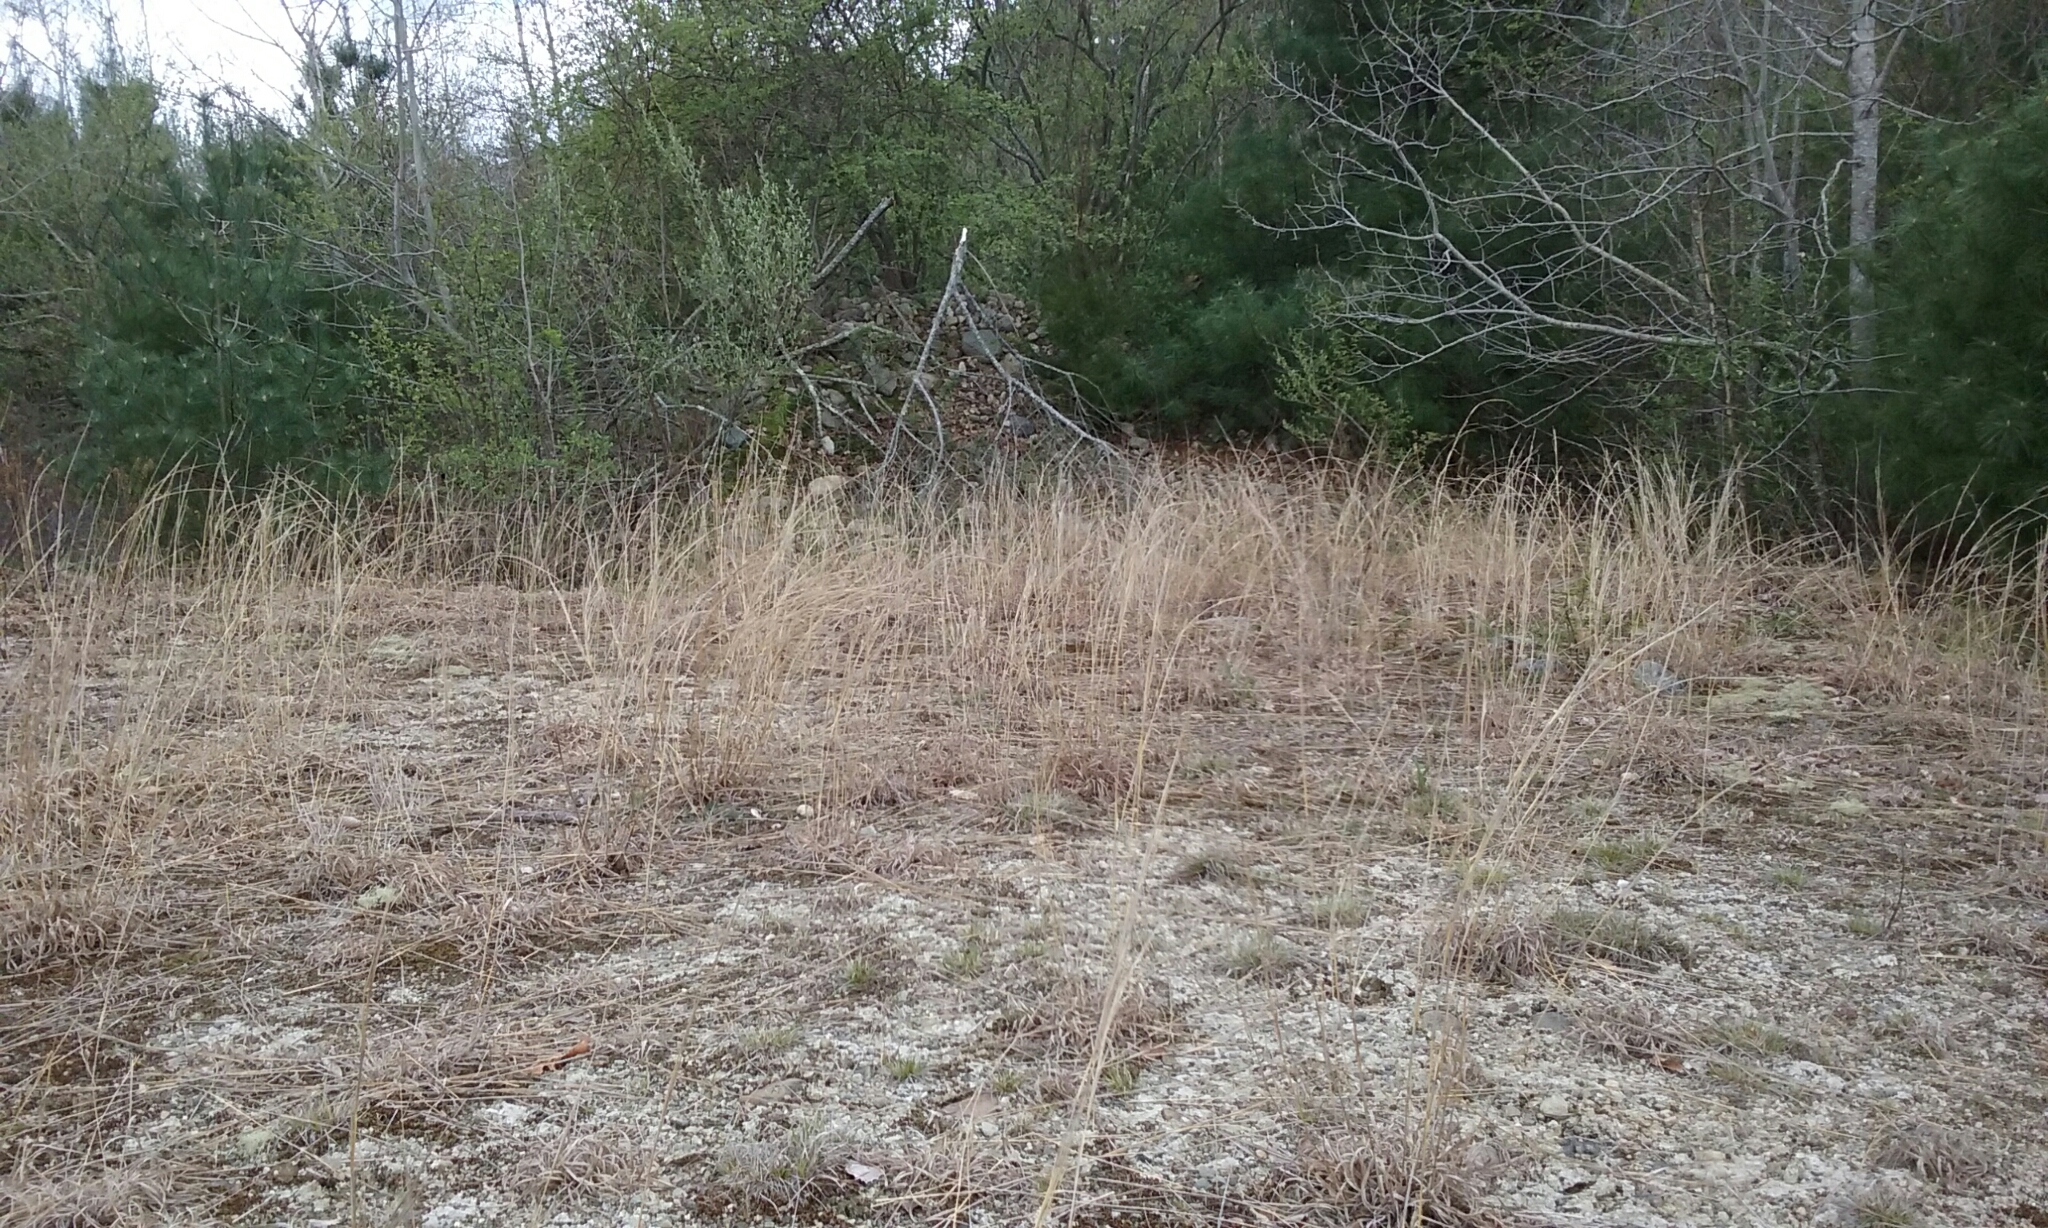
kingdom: Plantae
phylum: Tracheophyta
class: Liliopsida
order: Poales
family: Poaceae
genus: Schizachyrium
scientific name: Schizachyrium scoparium
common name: Little bluestem
